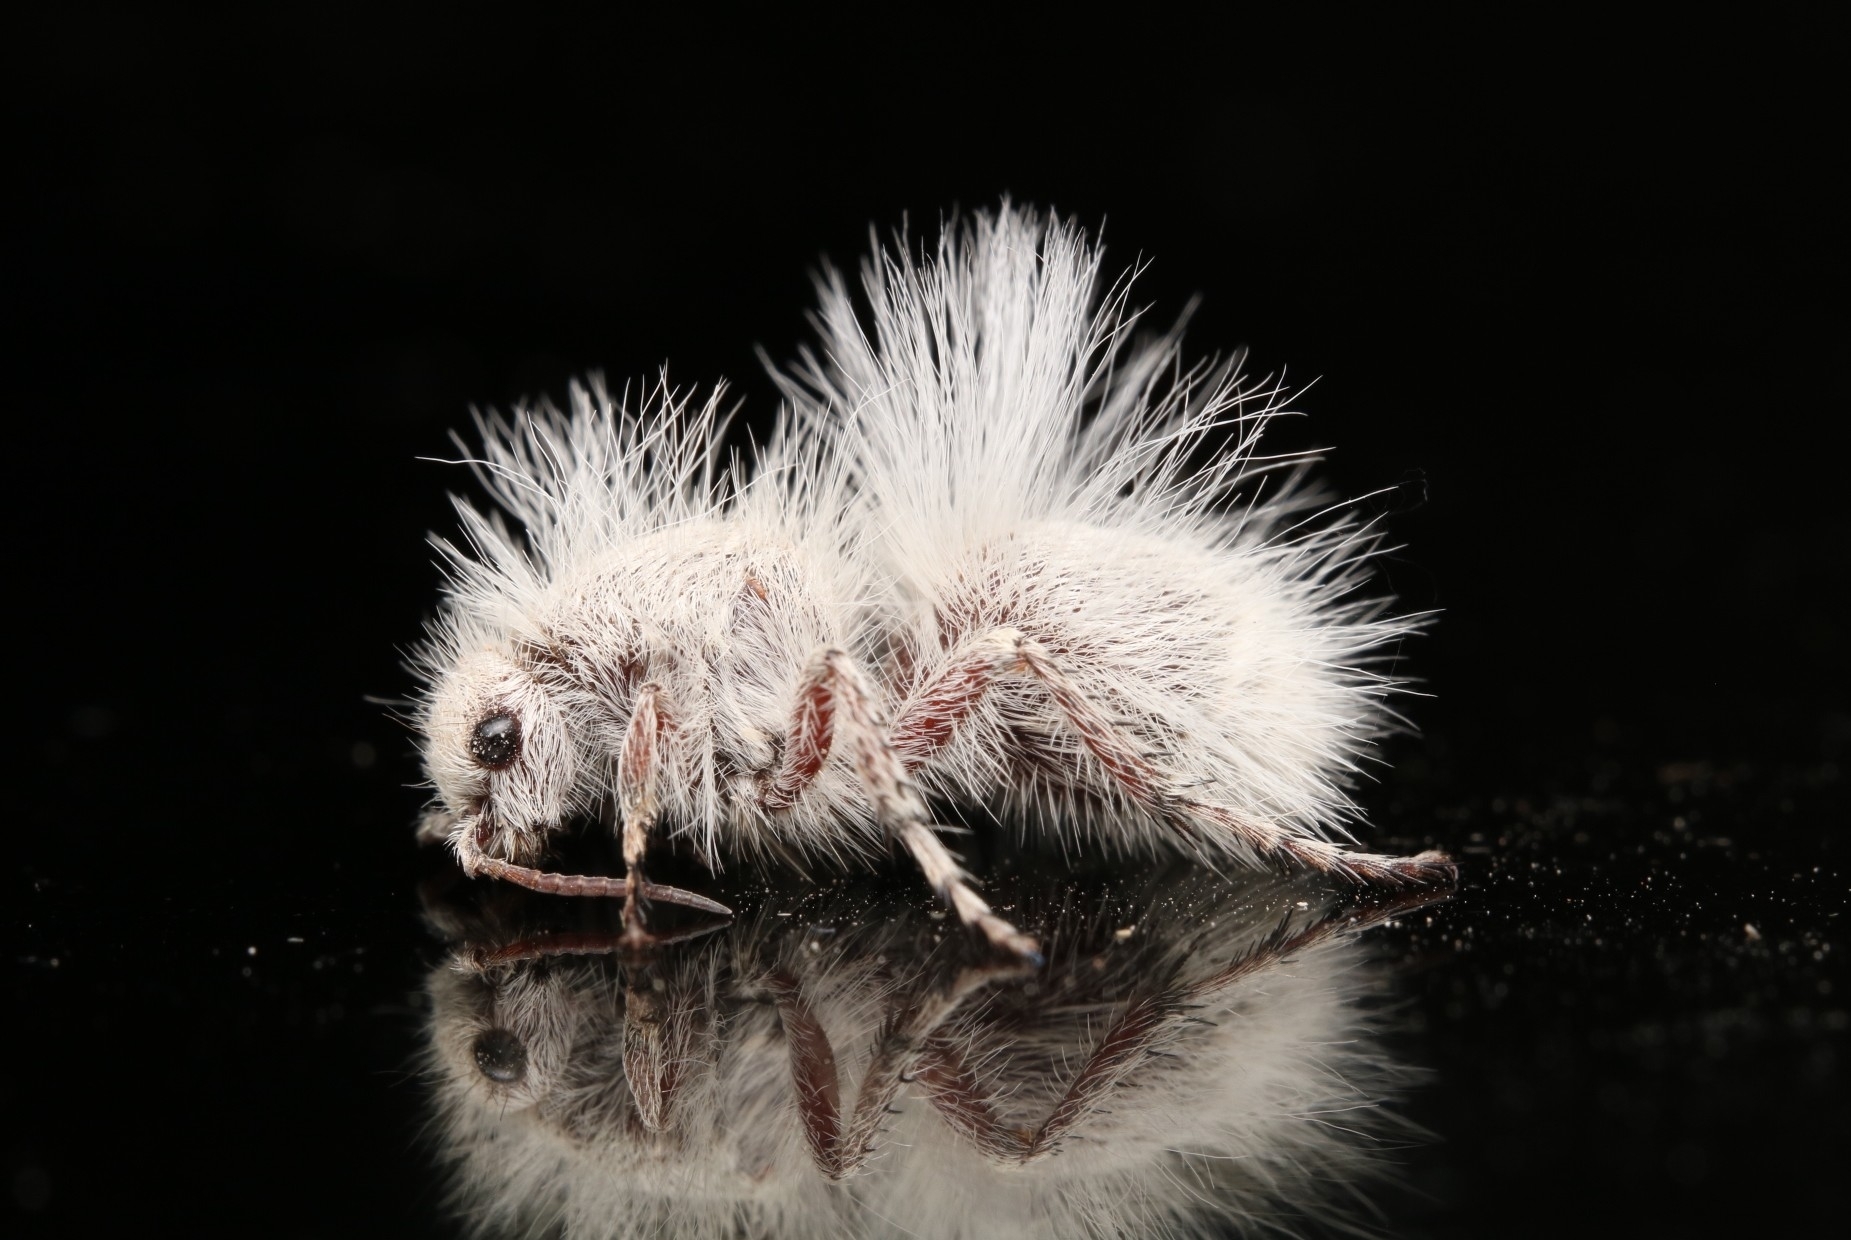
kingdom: Animalia
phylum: Arthropoda
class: Insecta
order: Hymenoptera
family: Mutillidae
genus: Dasymutilla
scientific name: Dasymutilla gloriosa
